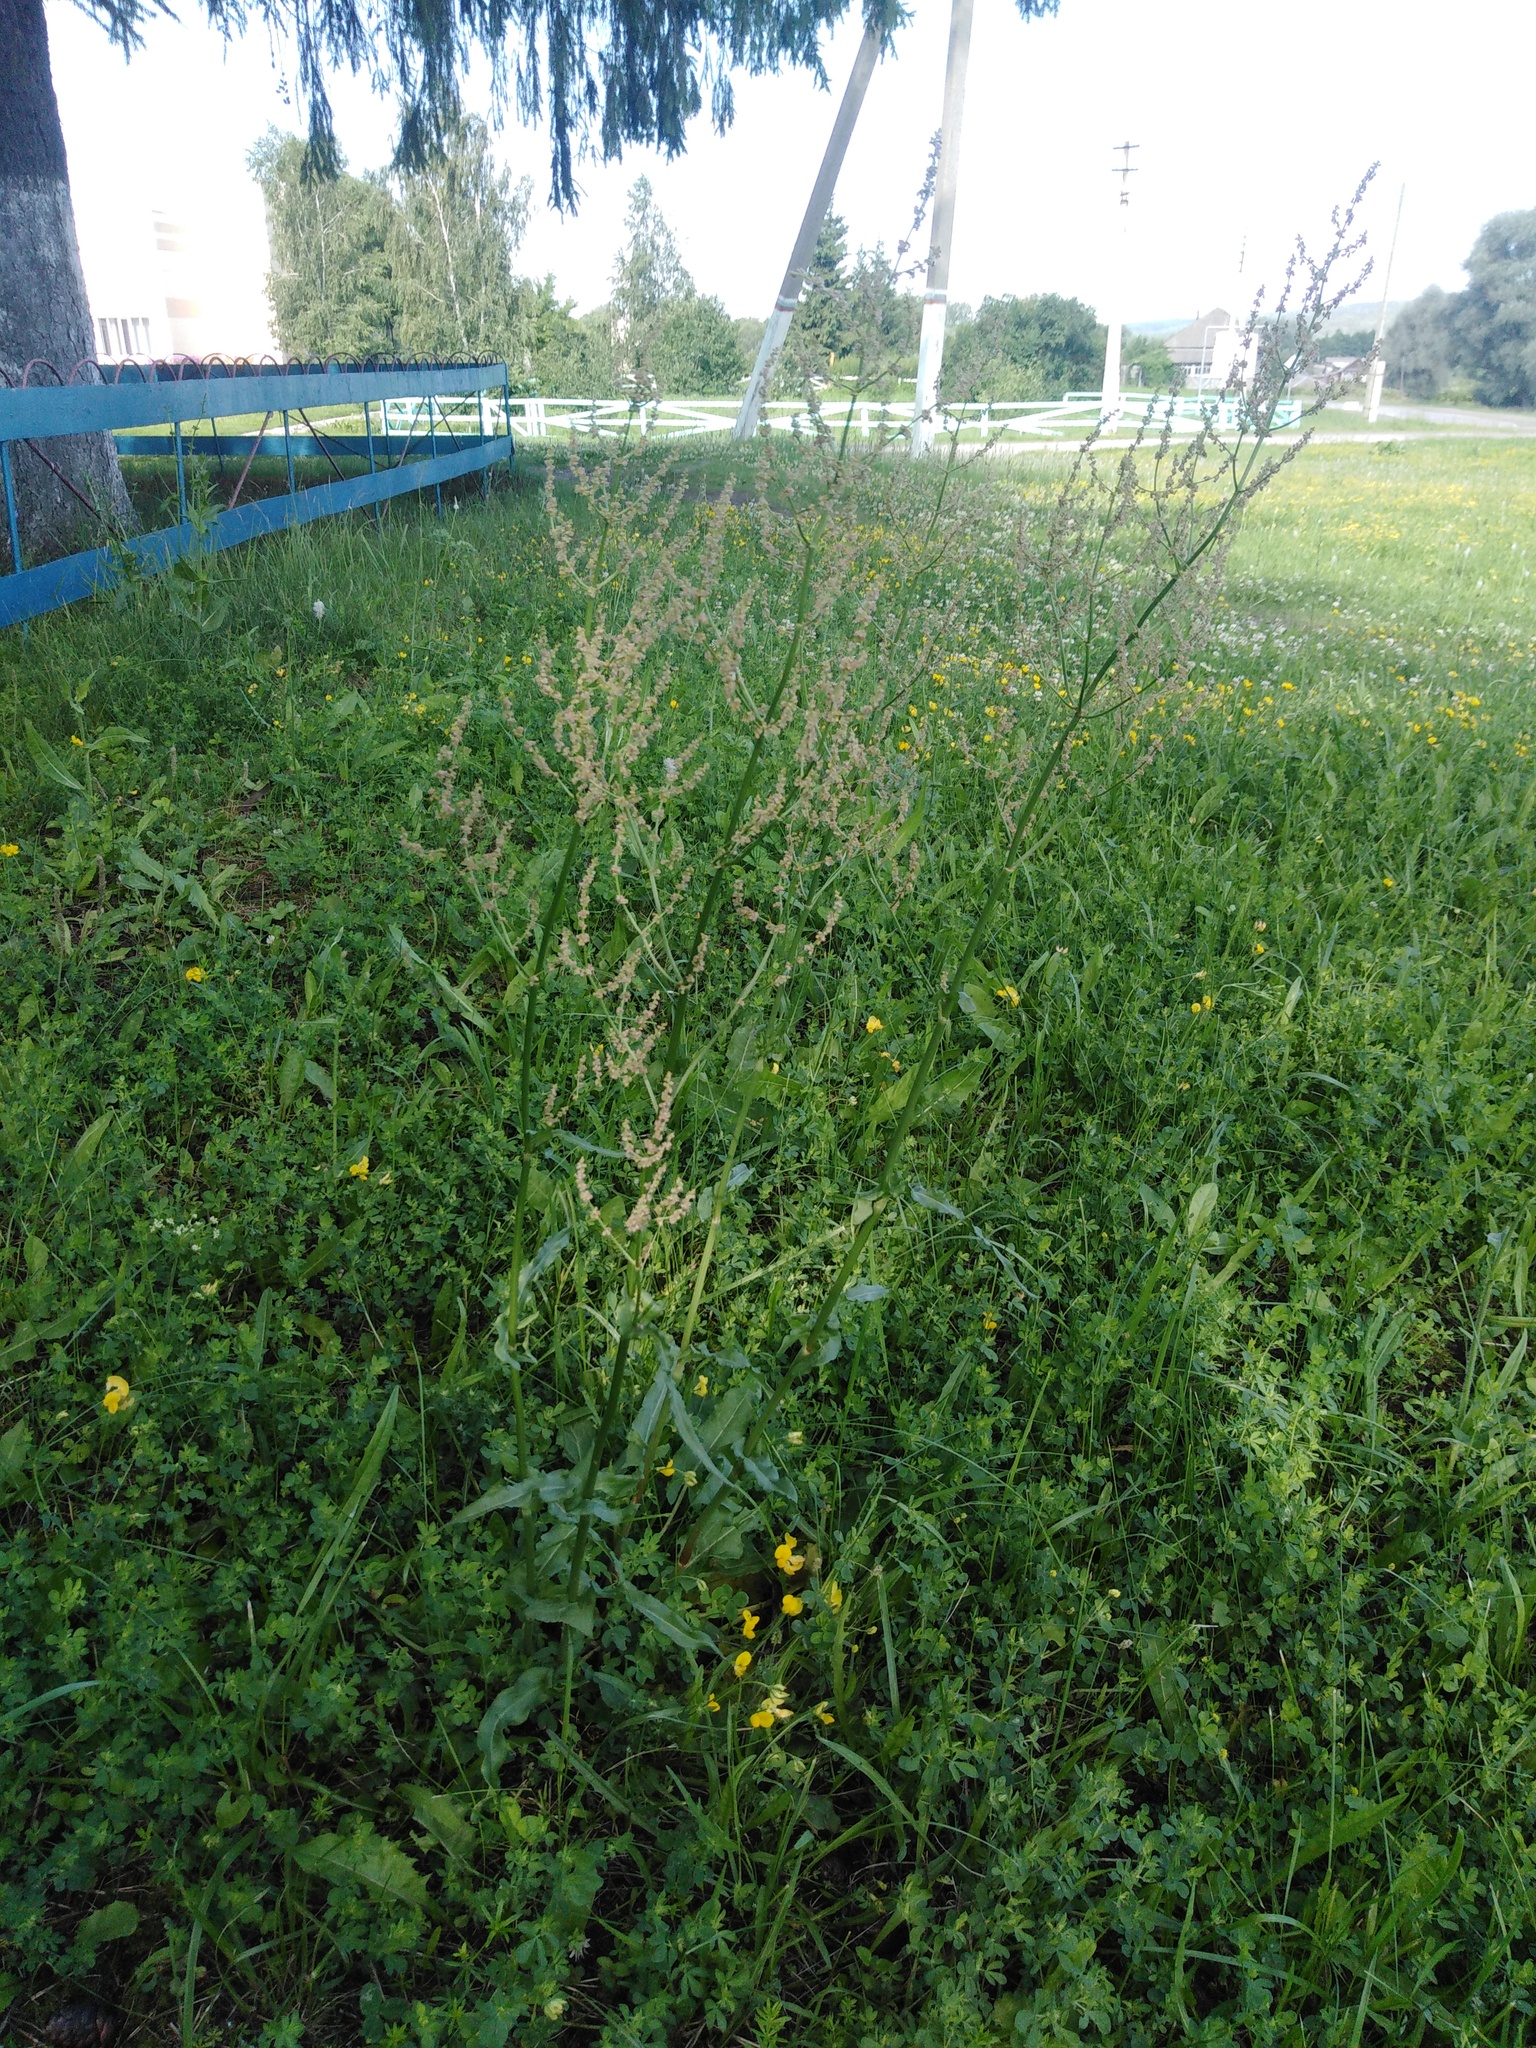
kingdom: Plantae
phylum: Tracheophyta
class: Magnoliopsida
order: Caryophyllales
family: Polygonaceae
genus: Rumex
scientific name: Rumex thyrsiflorus
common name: Garden sorrel
